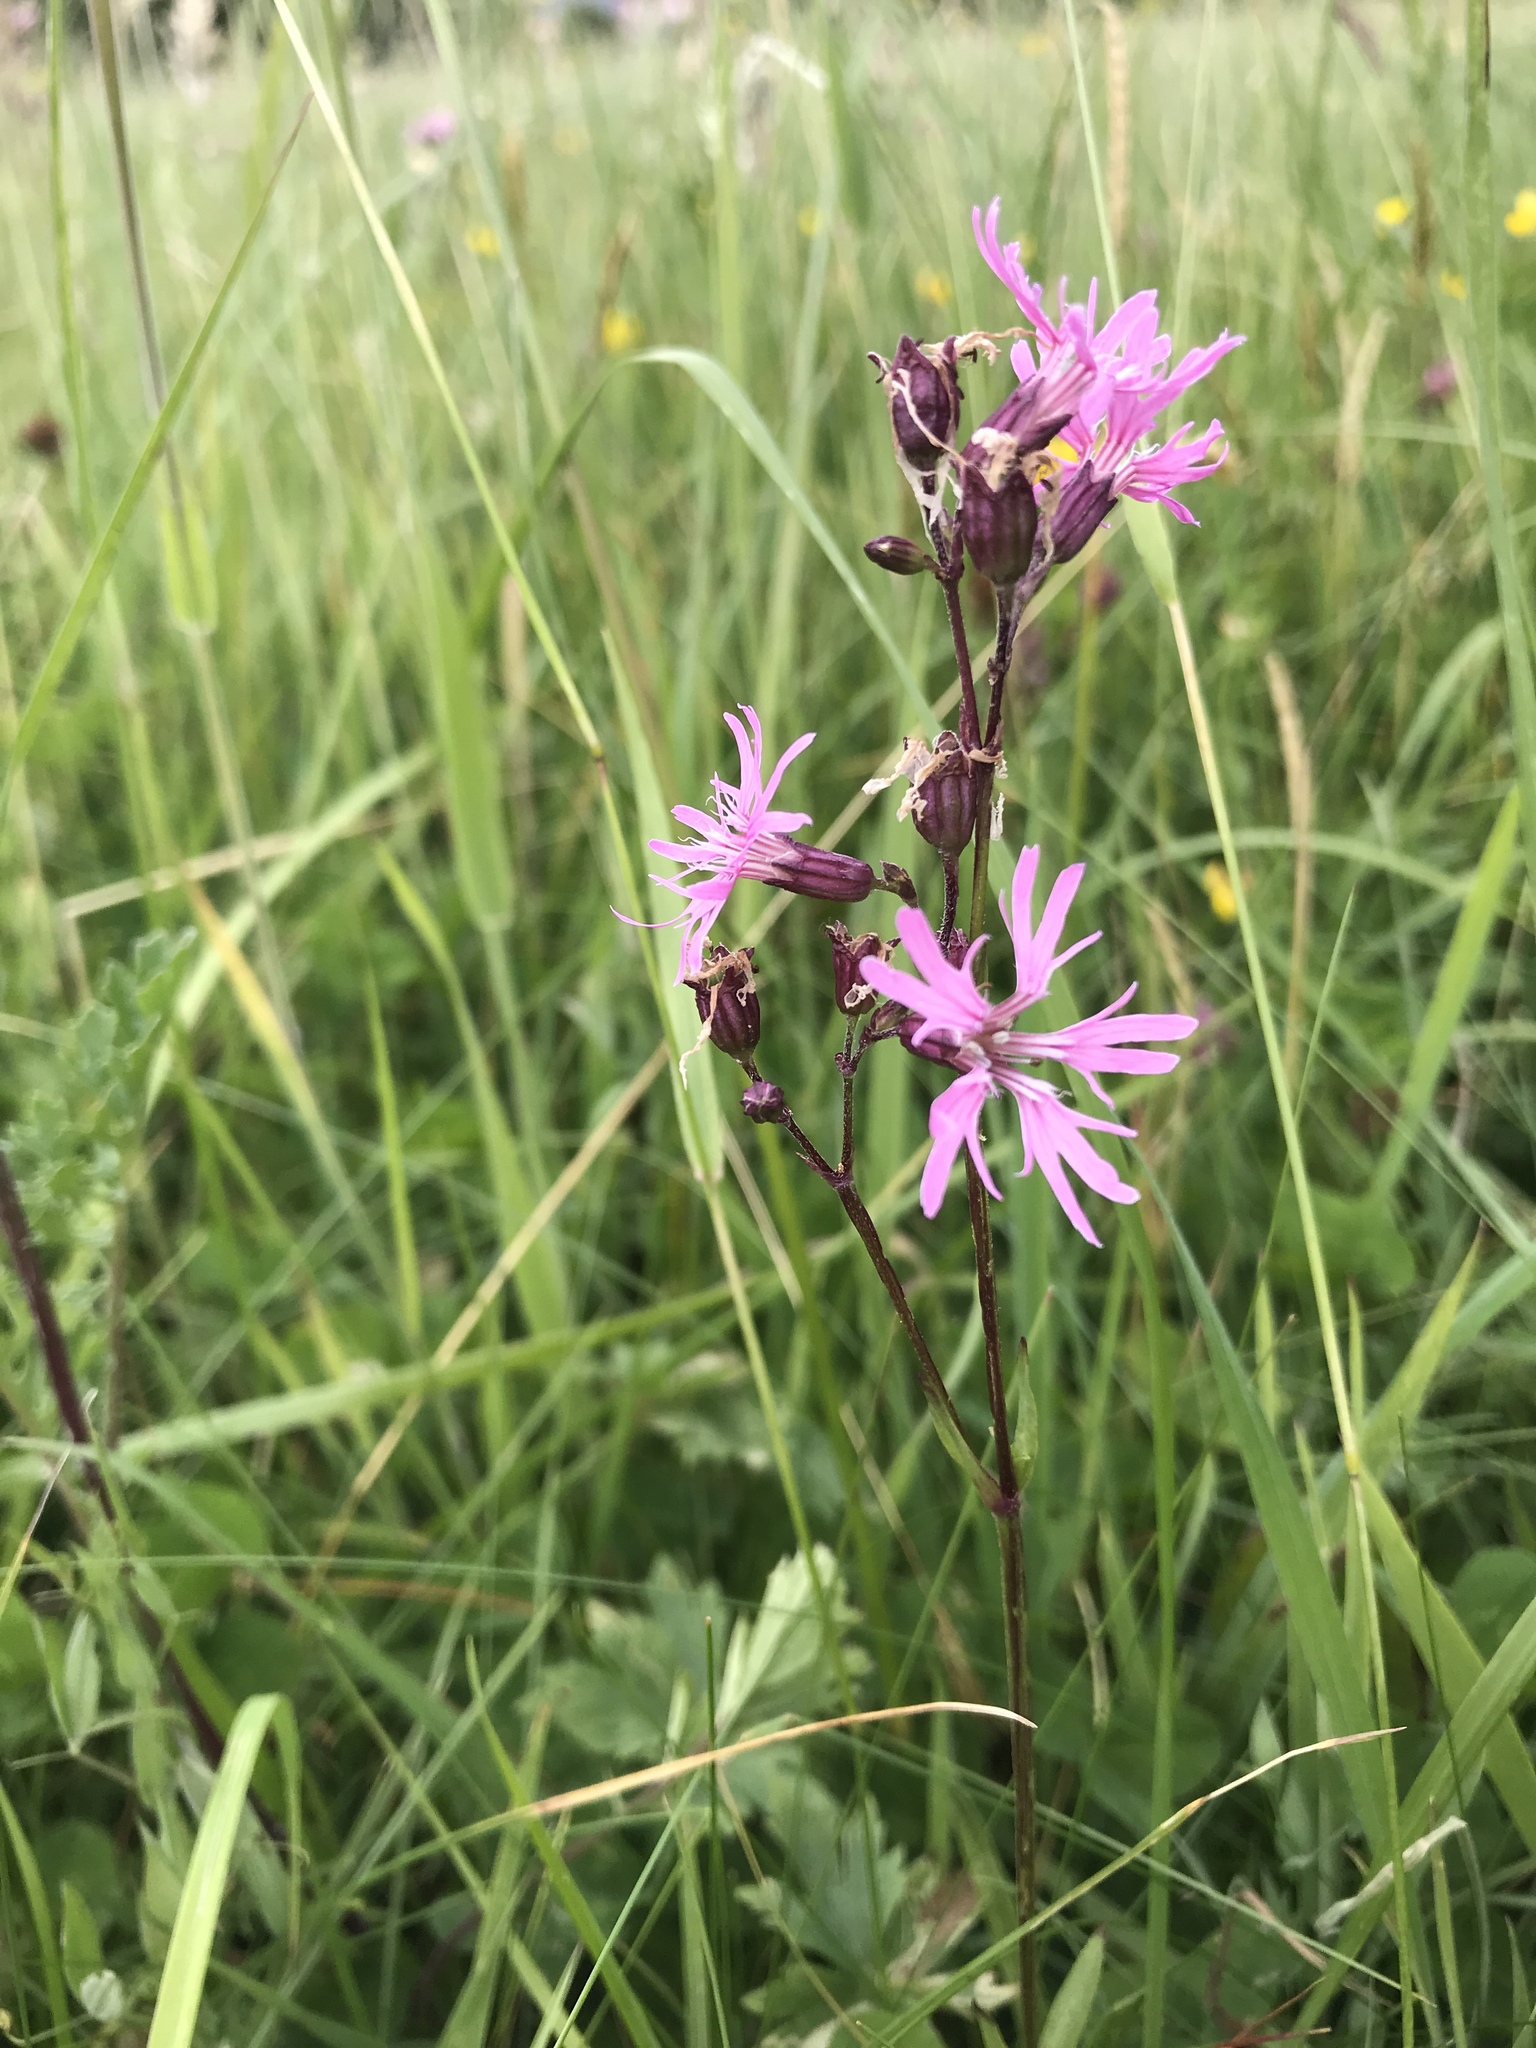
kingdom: Plantae
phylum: Tracheophyta
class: Magnoliopsida
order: Caryophyllales
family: Caryophyllaceae
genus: Silene
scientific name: Silene flos-cuculi
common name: Ragged-robin
